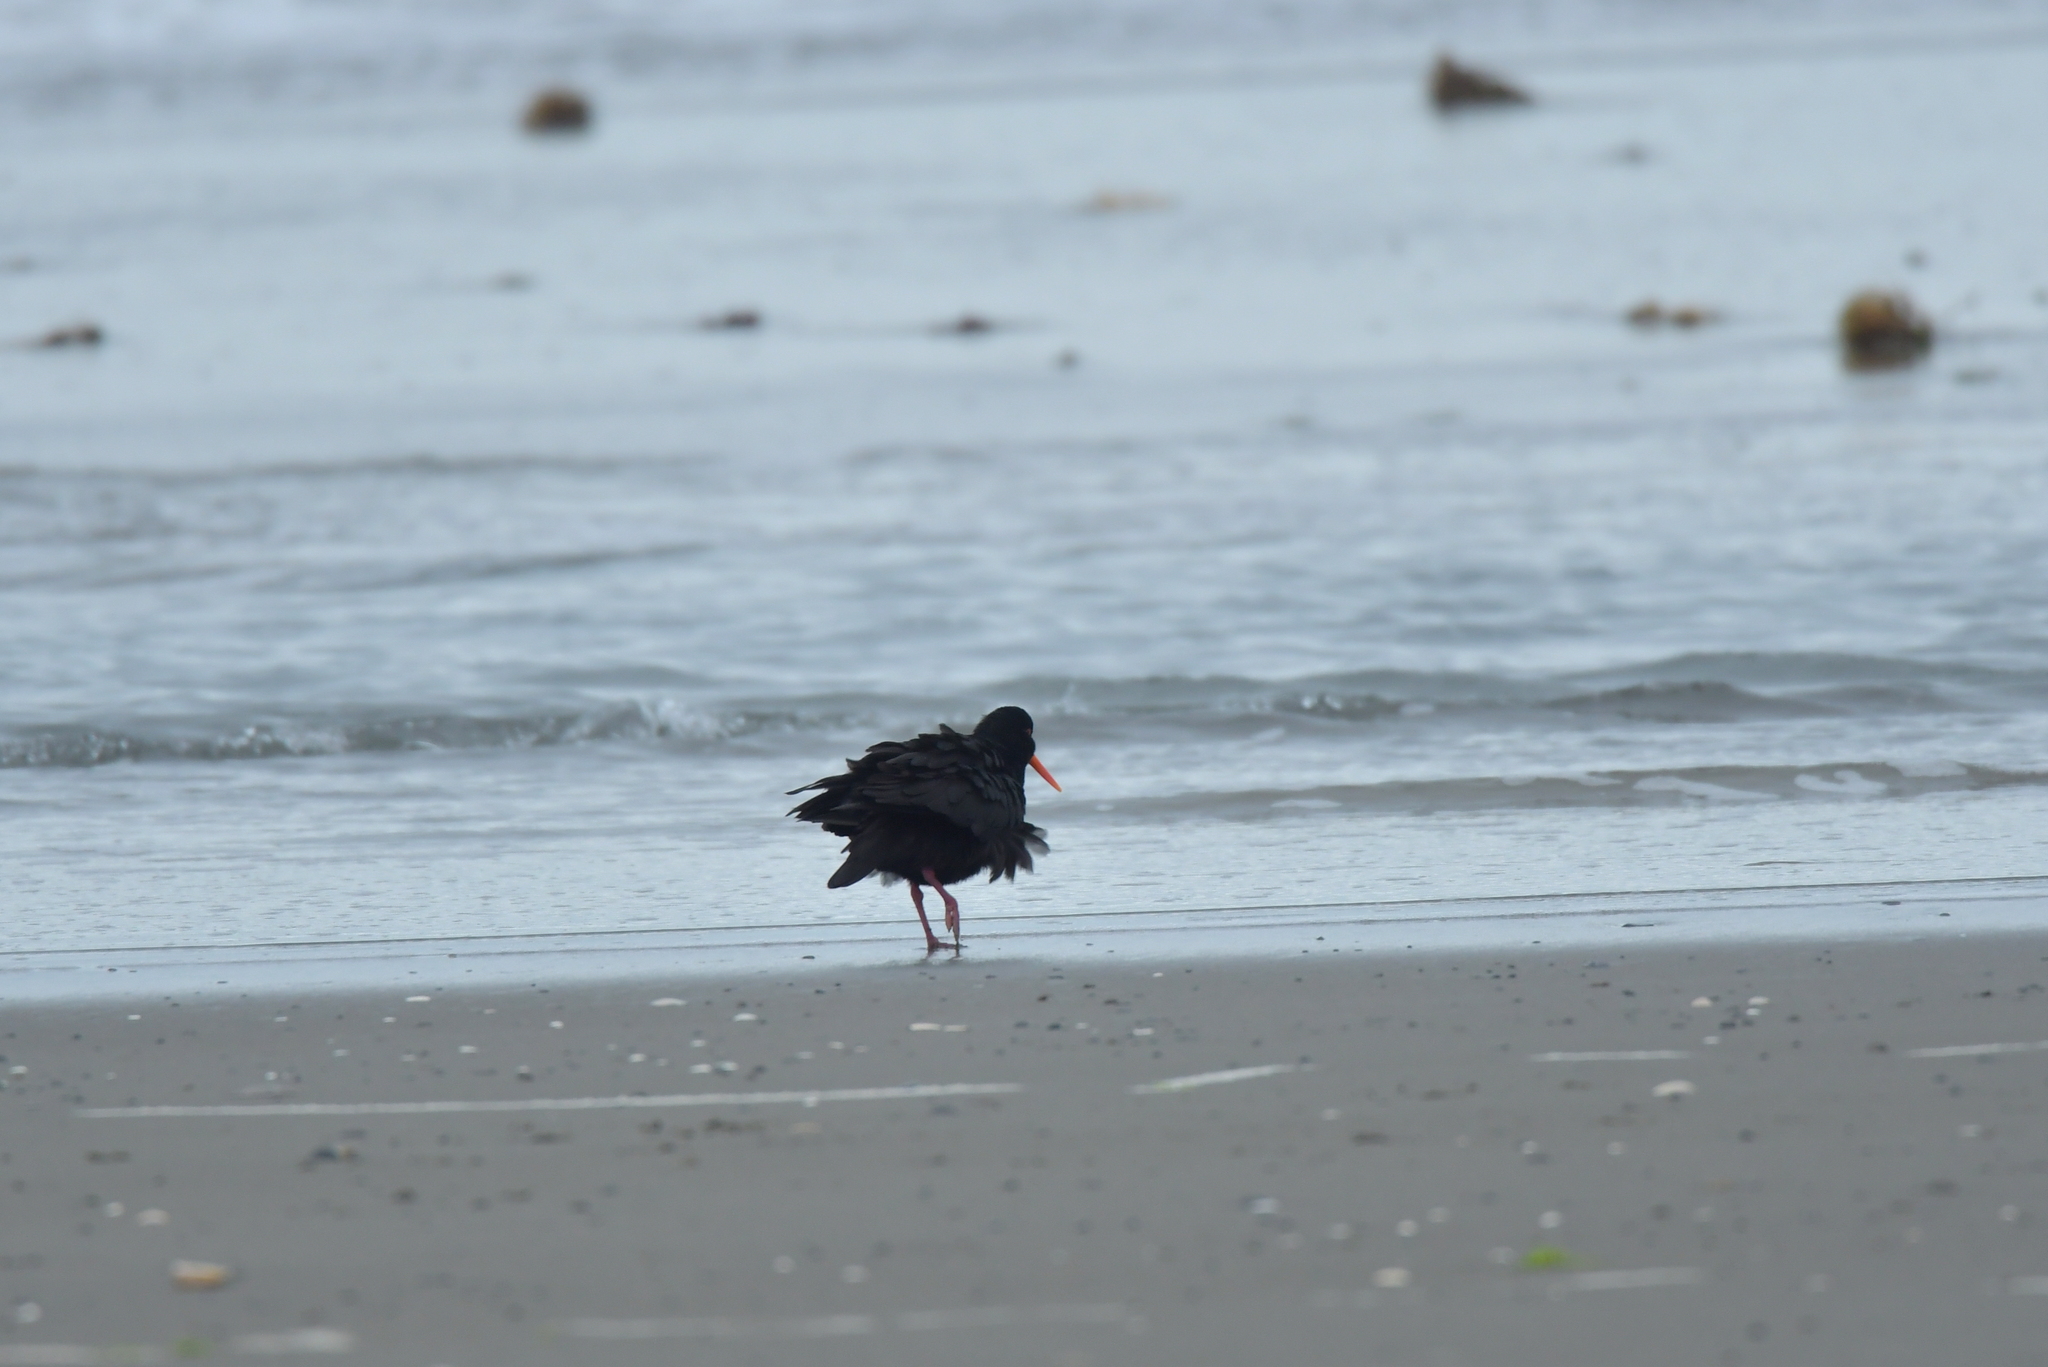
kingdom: Animalia
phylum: Chordata
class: Aves
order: Charadriiformes
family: Haematopodidae
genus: Haematopus
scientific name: Haematopus unicolor
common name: Variable oystercatcher
